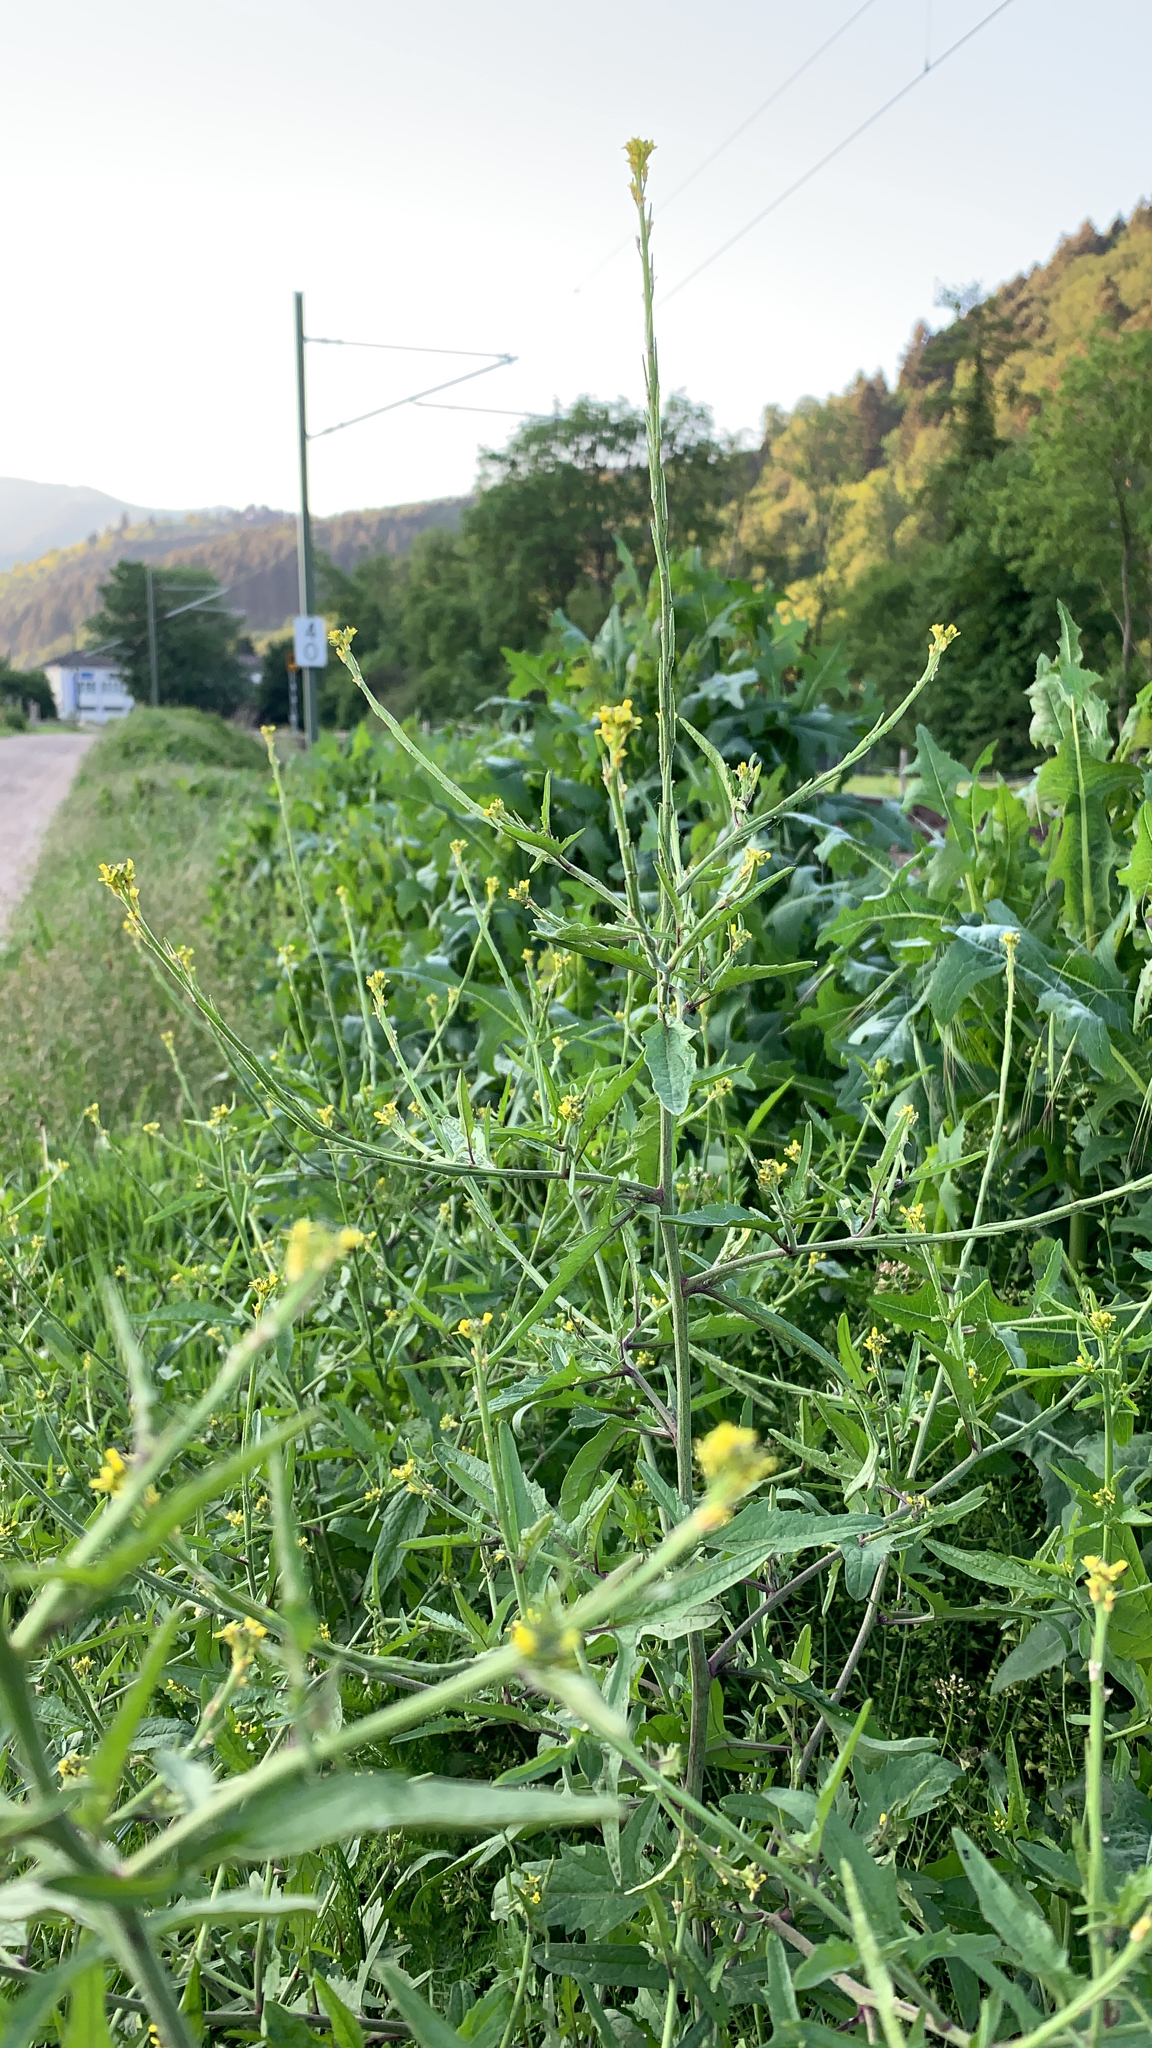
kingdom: Plantae
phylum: Tracheophyta
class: Magnoliopsida
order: Brassicales
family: Brassicaceae
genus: Sisymbrium
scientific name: Sisymbrium officinale
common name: Hedge mustard
